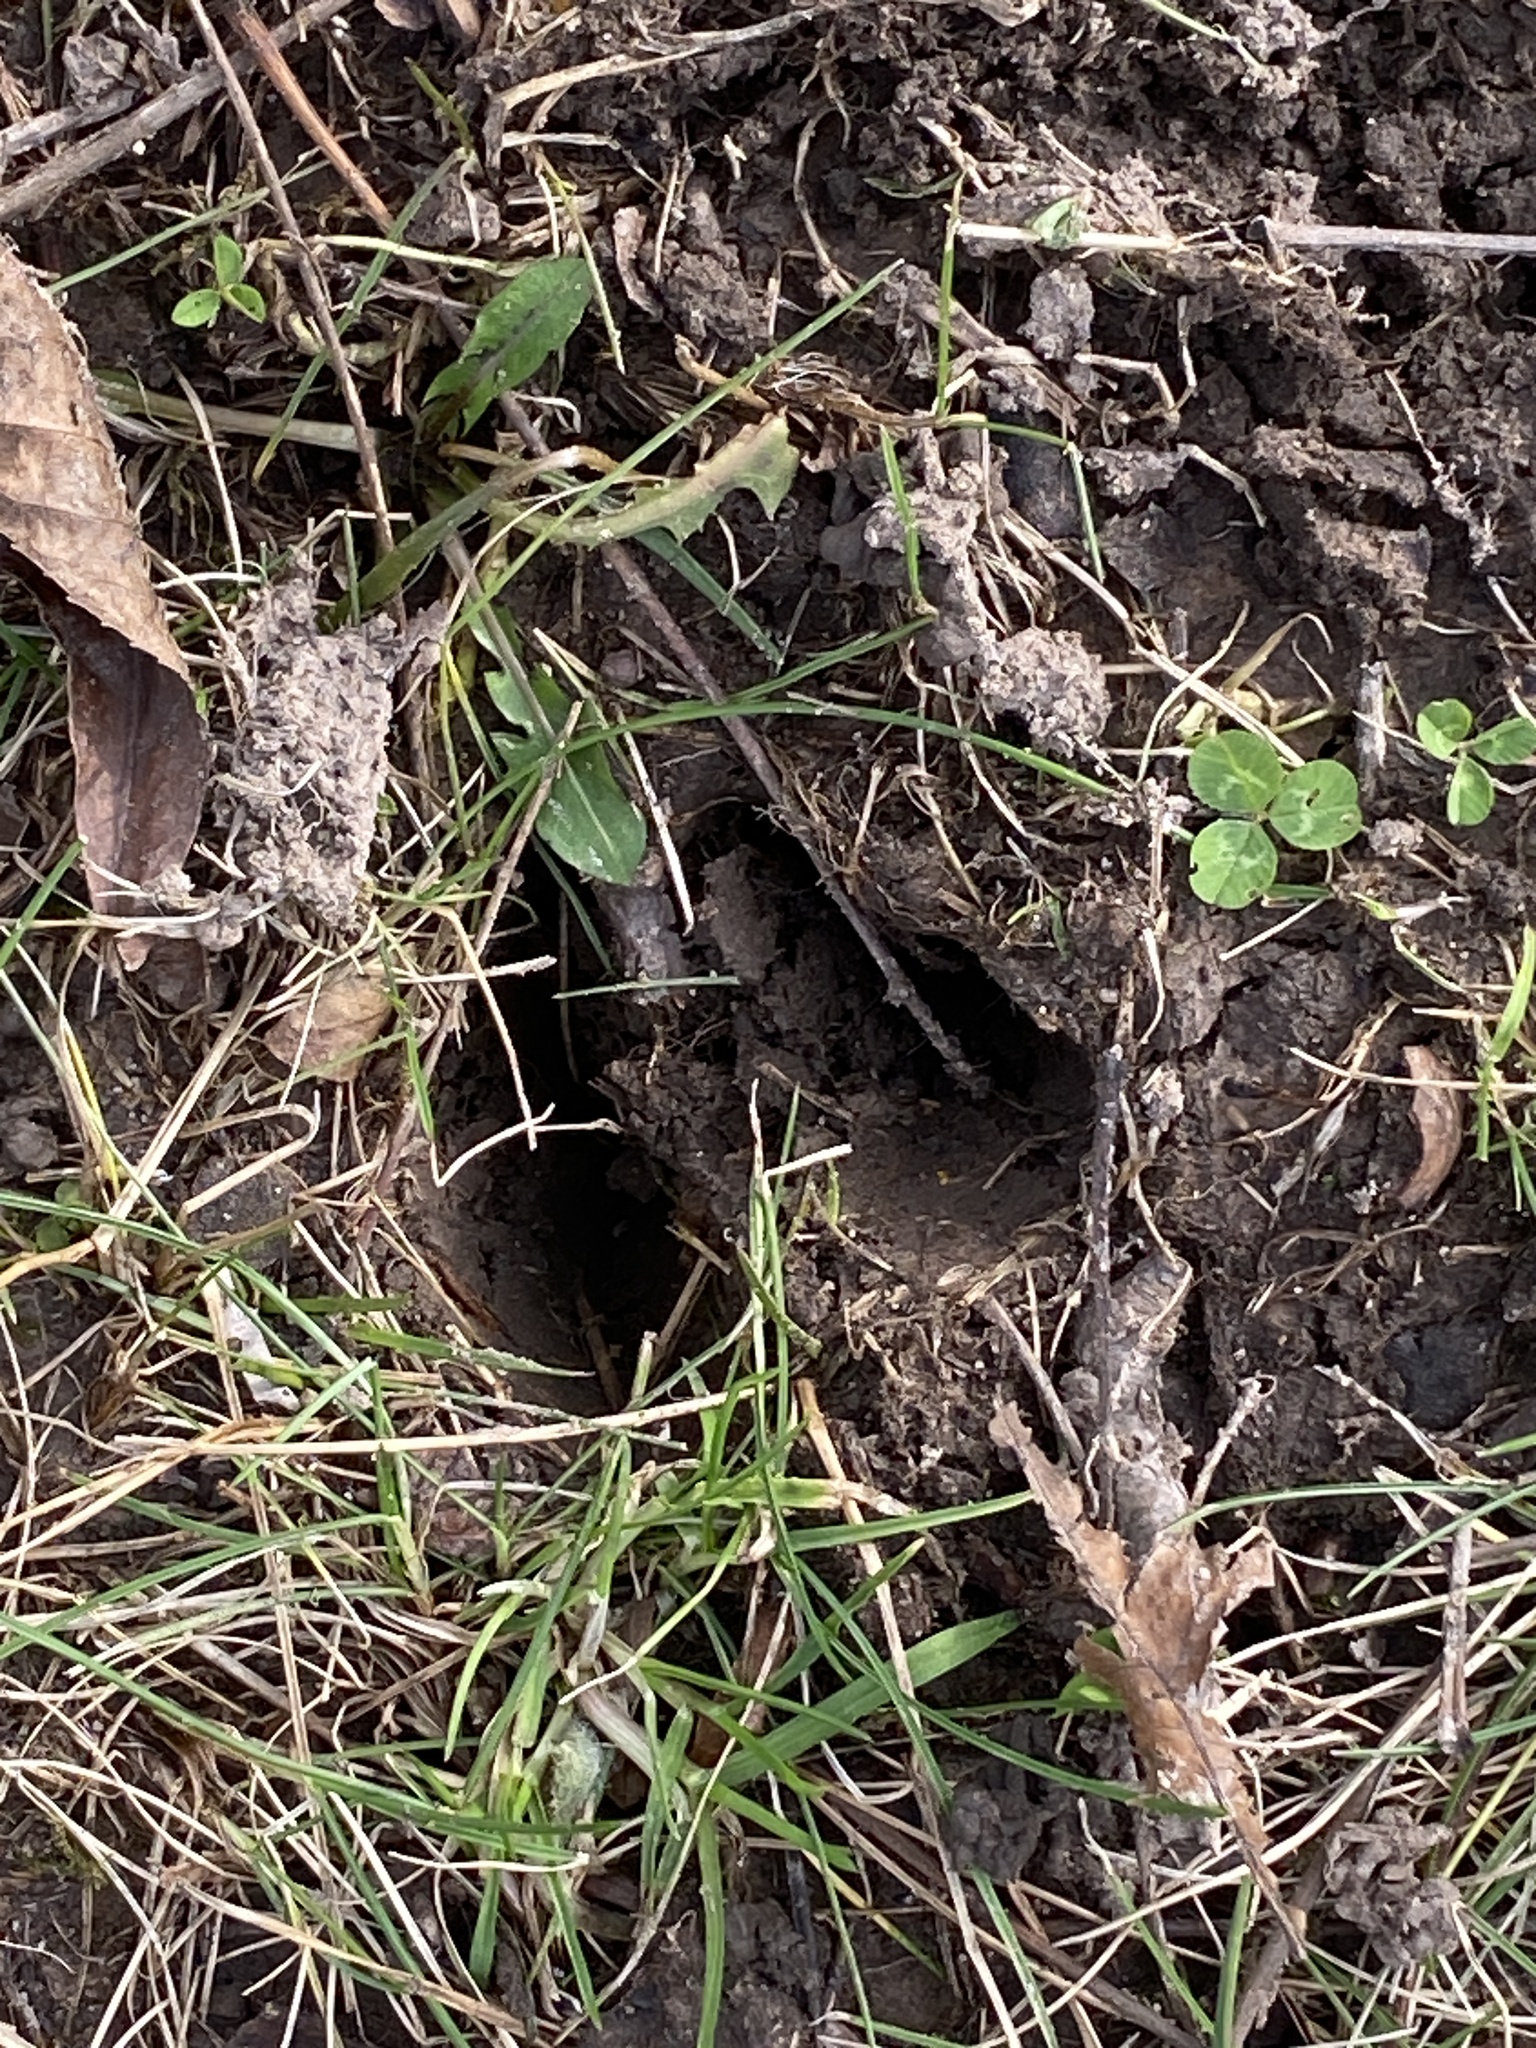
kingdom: Animalia
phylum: Chordata
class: Mammalia
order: Artiodactyla
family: Cervidae
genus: Odocoileus
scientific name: Odocoileus virginianus
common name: White-tailed deer
